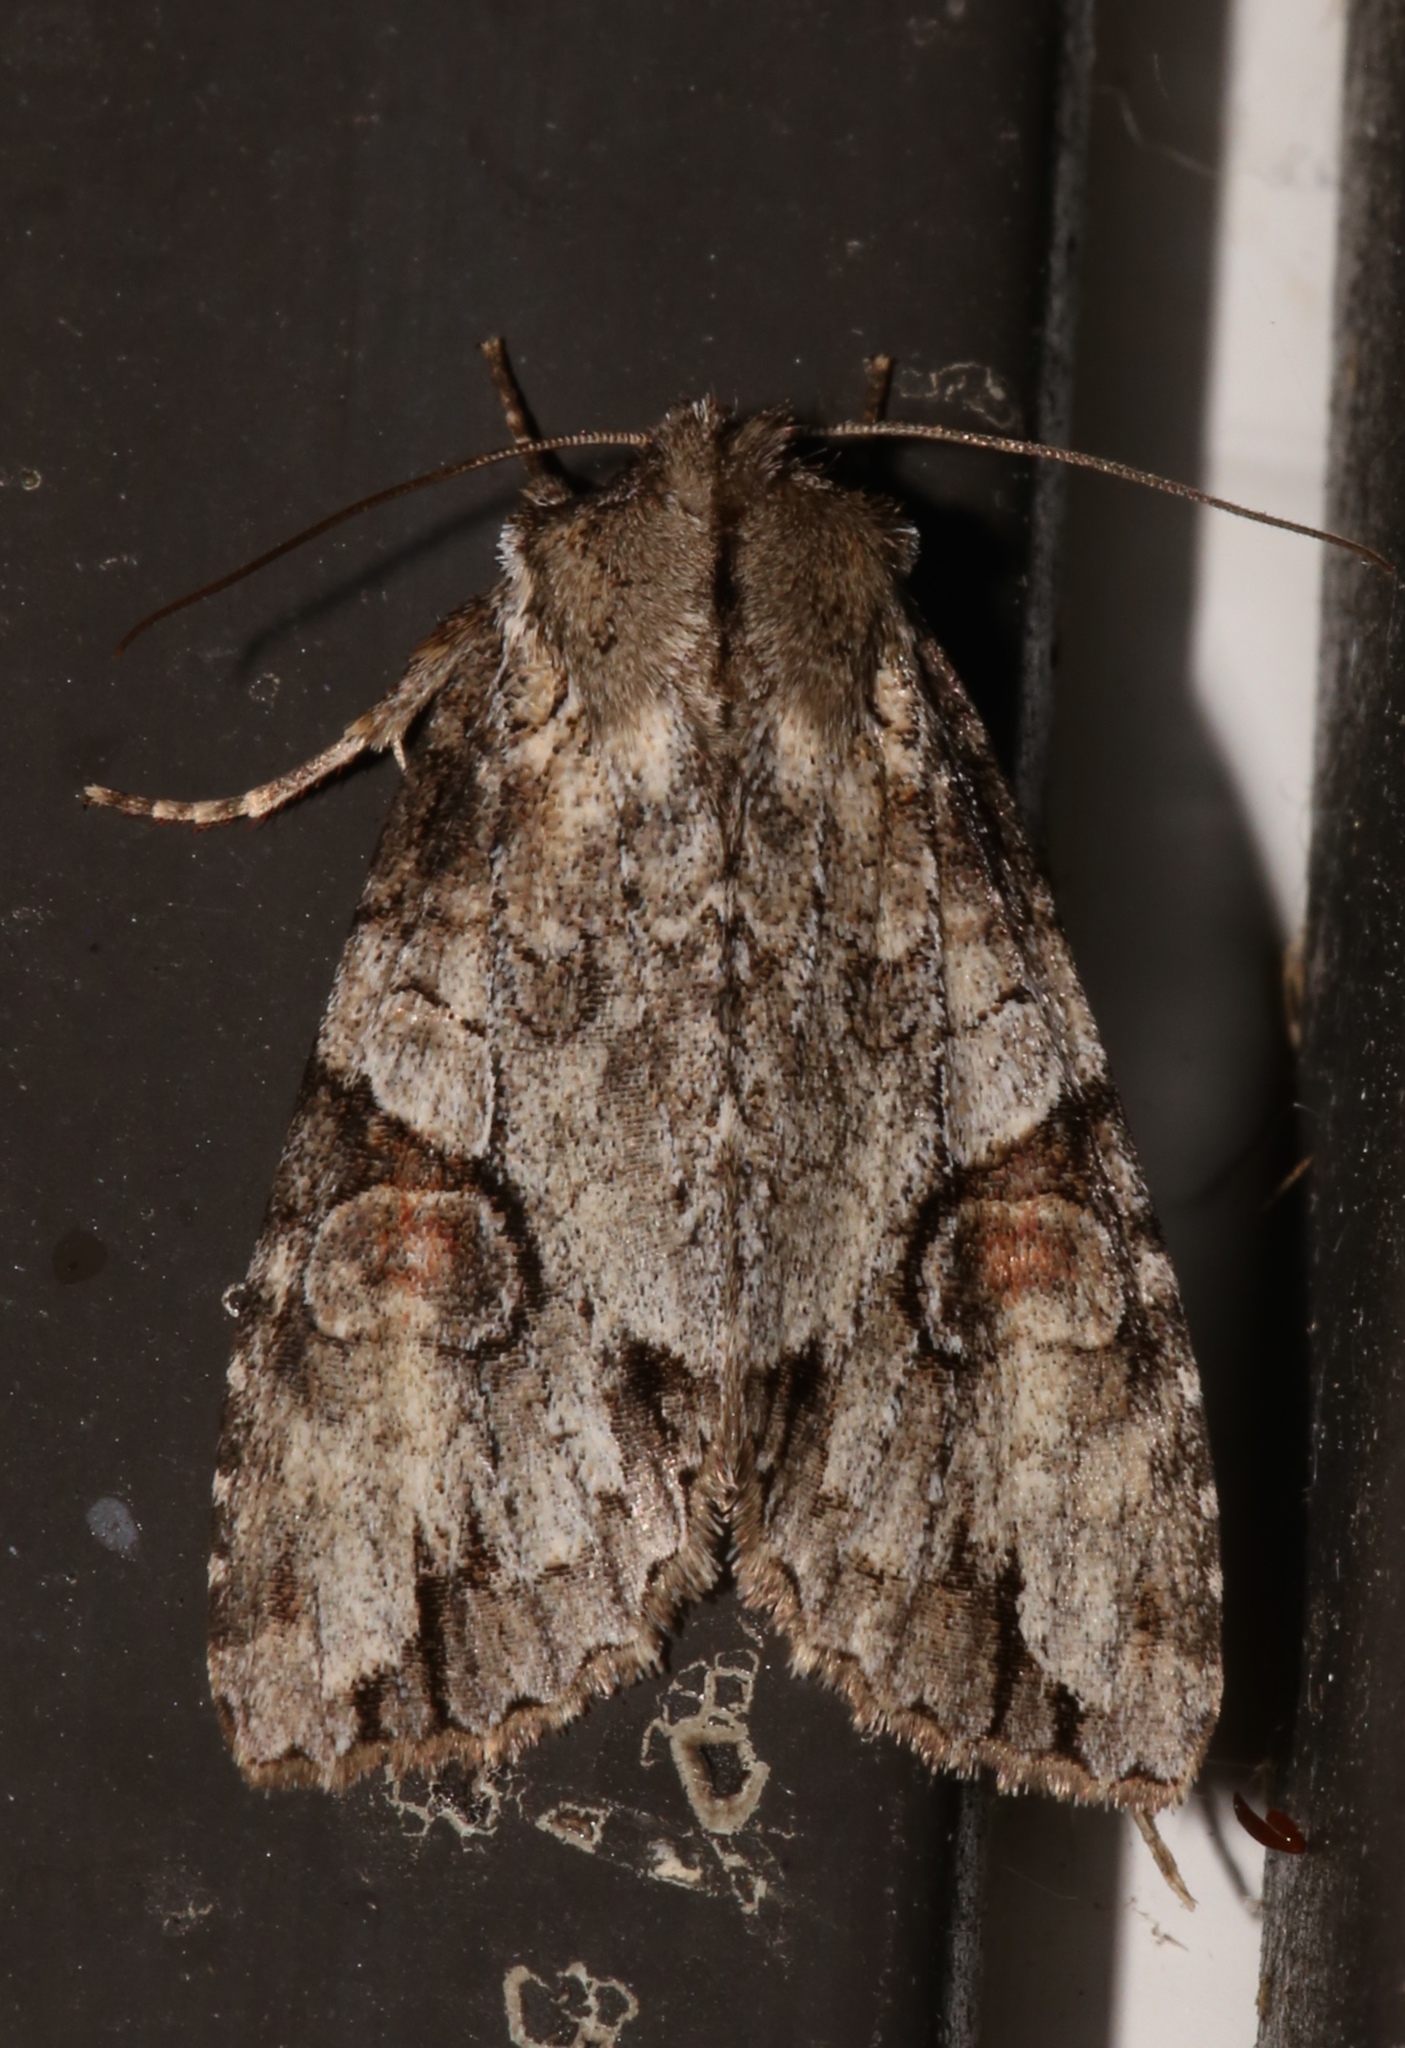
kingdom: Animalia
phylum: Arthropoda
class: Insecta
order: Lepidoptera
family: Noctuidae
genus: Achatia
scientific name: Achatia latex
